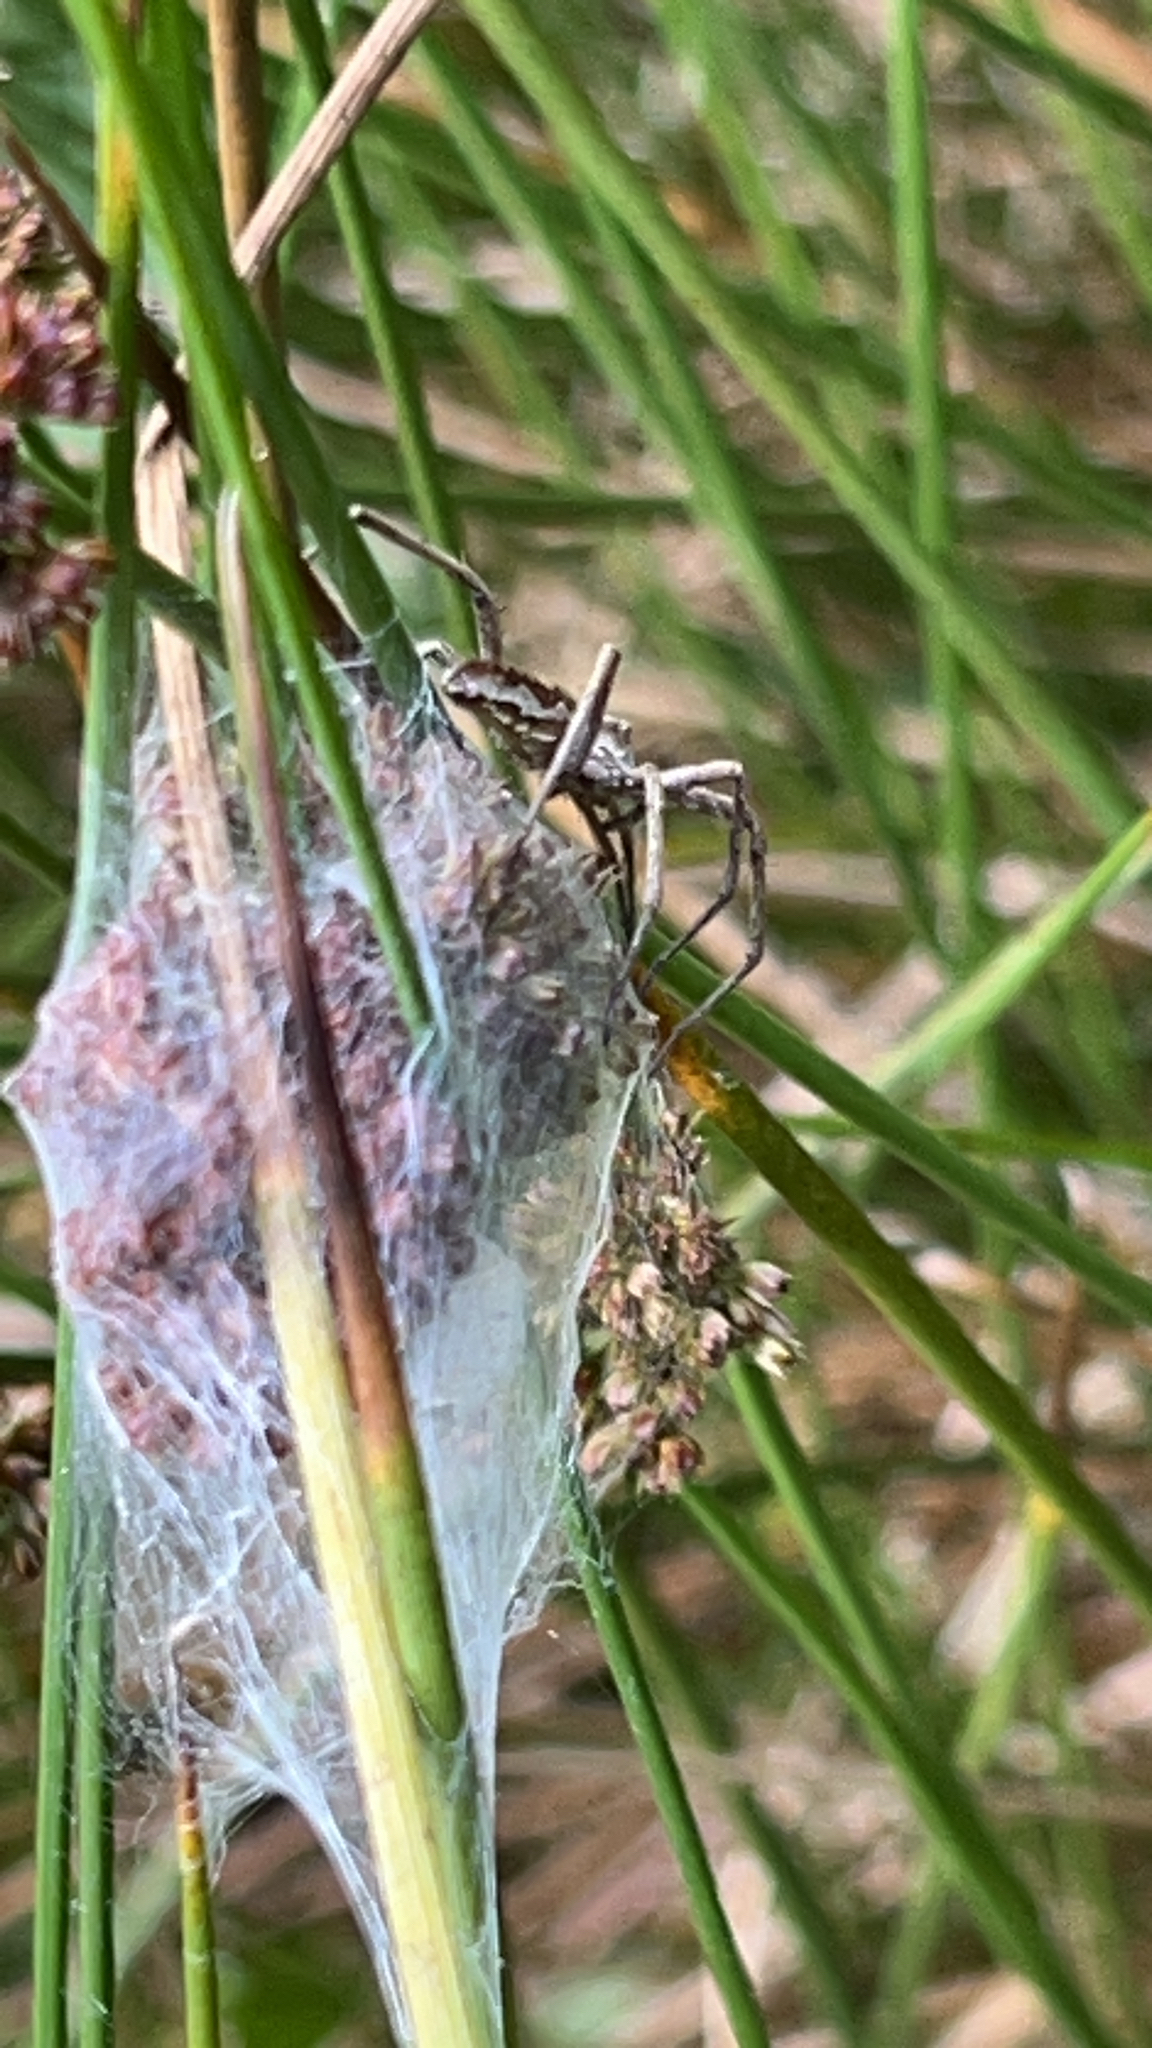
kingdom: Animalia
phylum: Arthropoda
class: Arachnida
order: Araneae
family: Pisauridae
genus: Pisaura
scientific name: Pisaura mirabilis
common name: Tent spider
